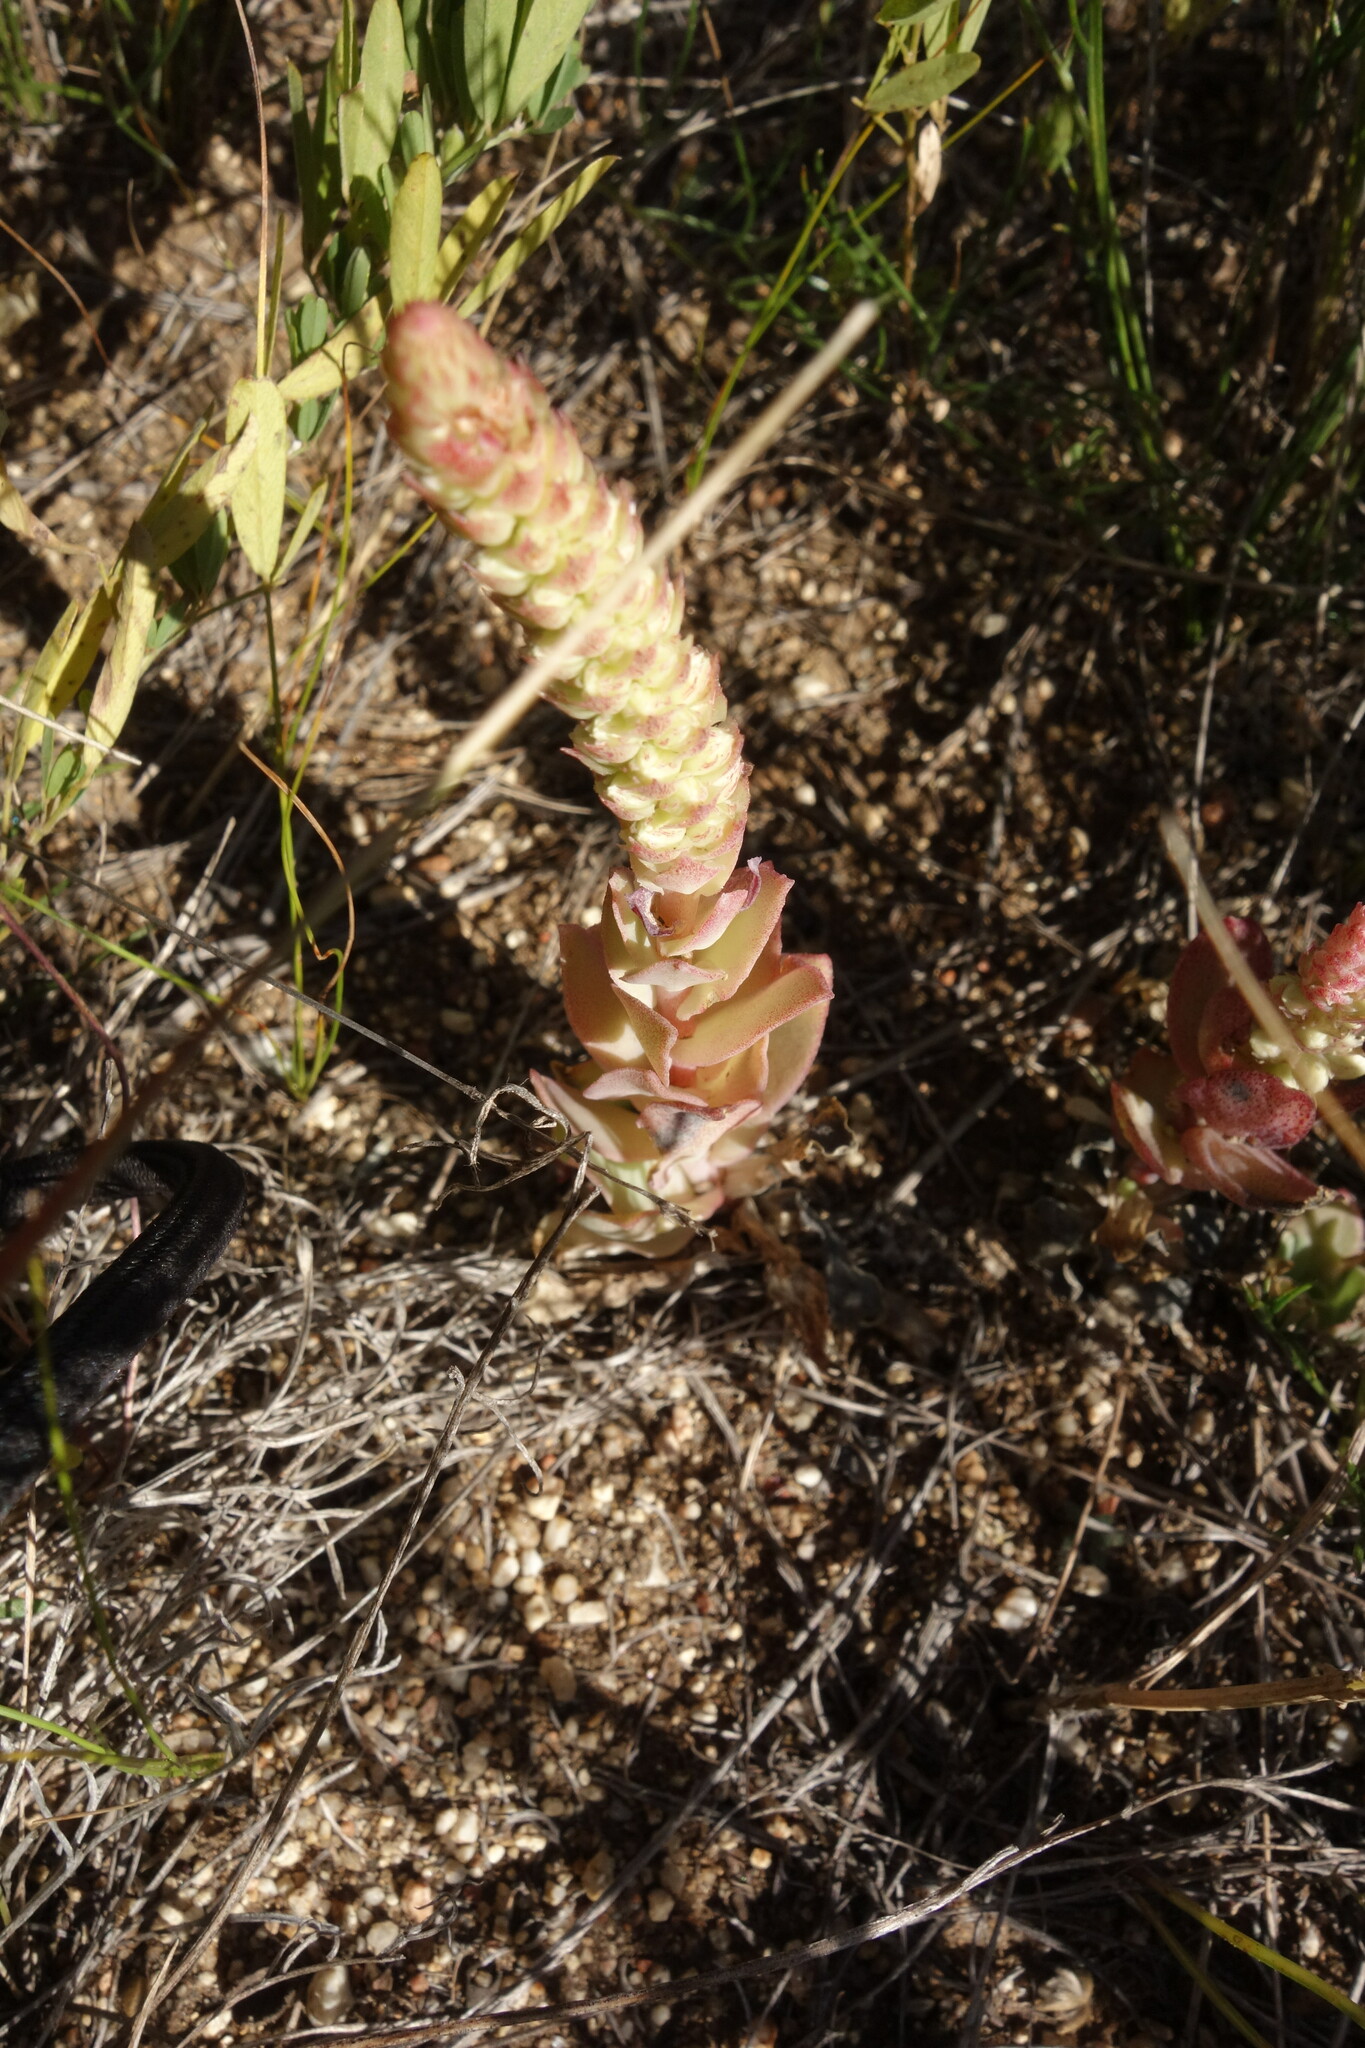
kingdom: Plantae
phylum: Tracheophyta
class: Magnoliopsida
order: Saxifragales
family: Crassulaceae
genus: Orostachys
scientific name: Orostachys malacophylla
